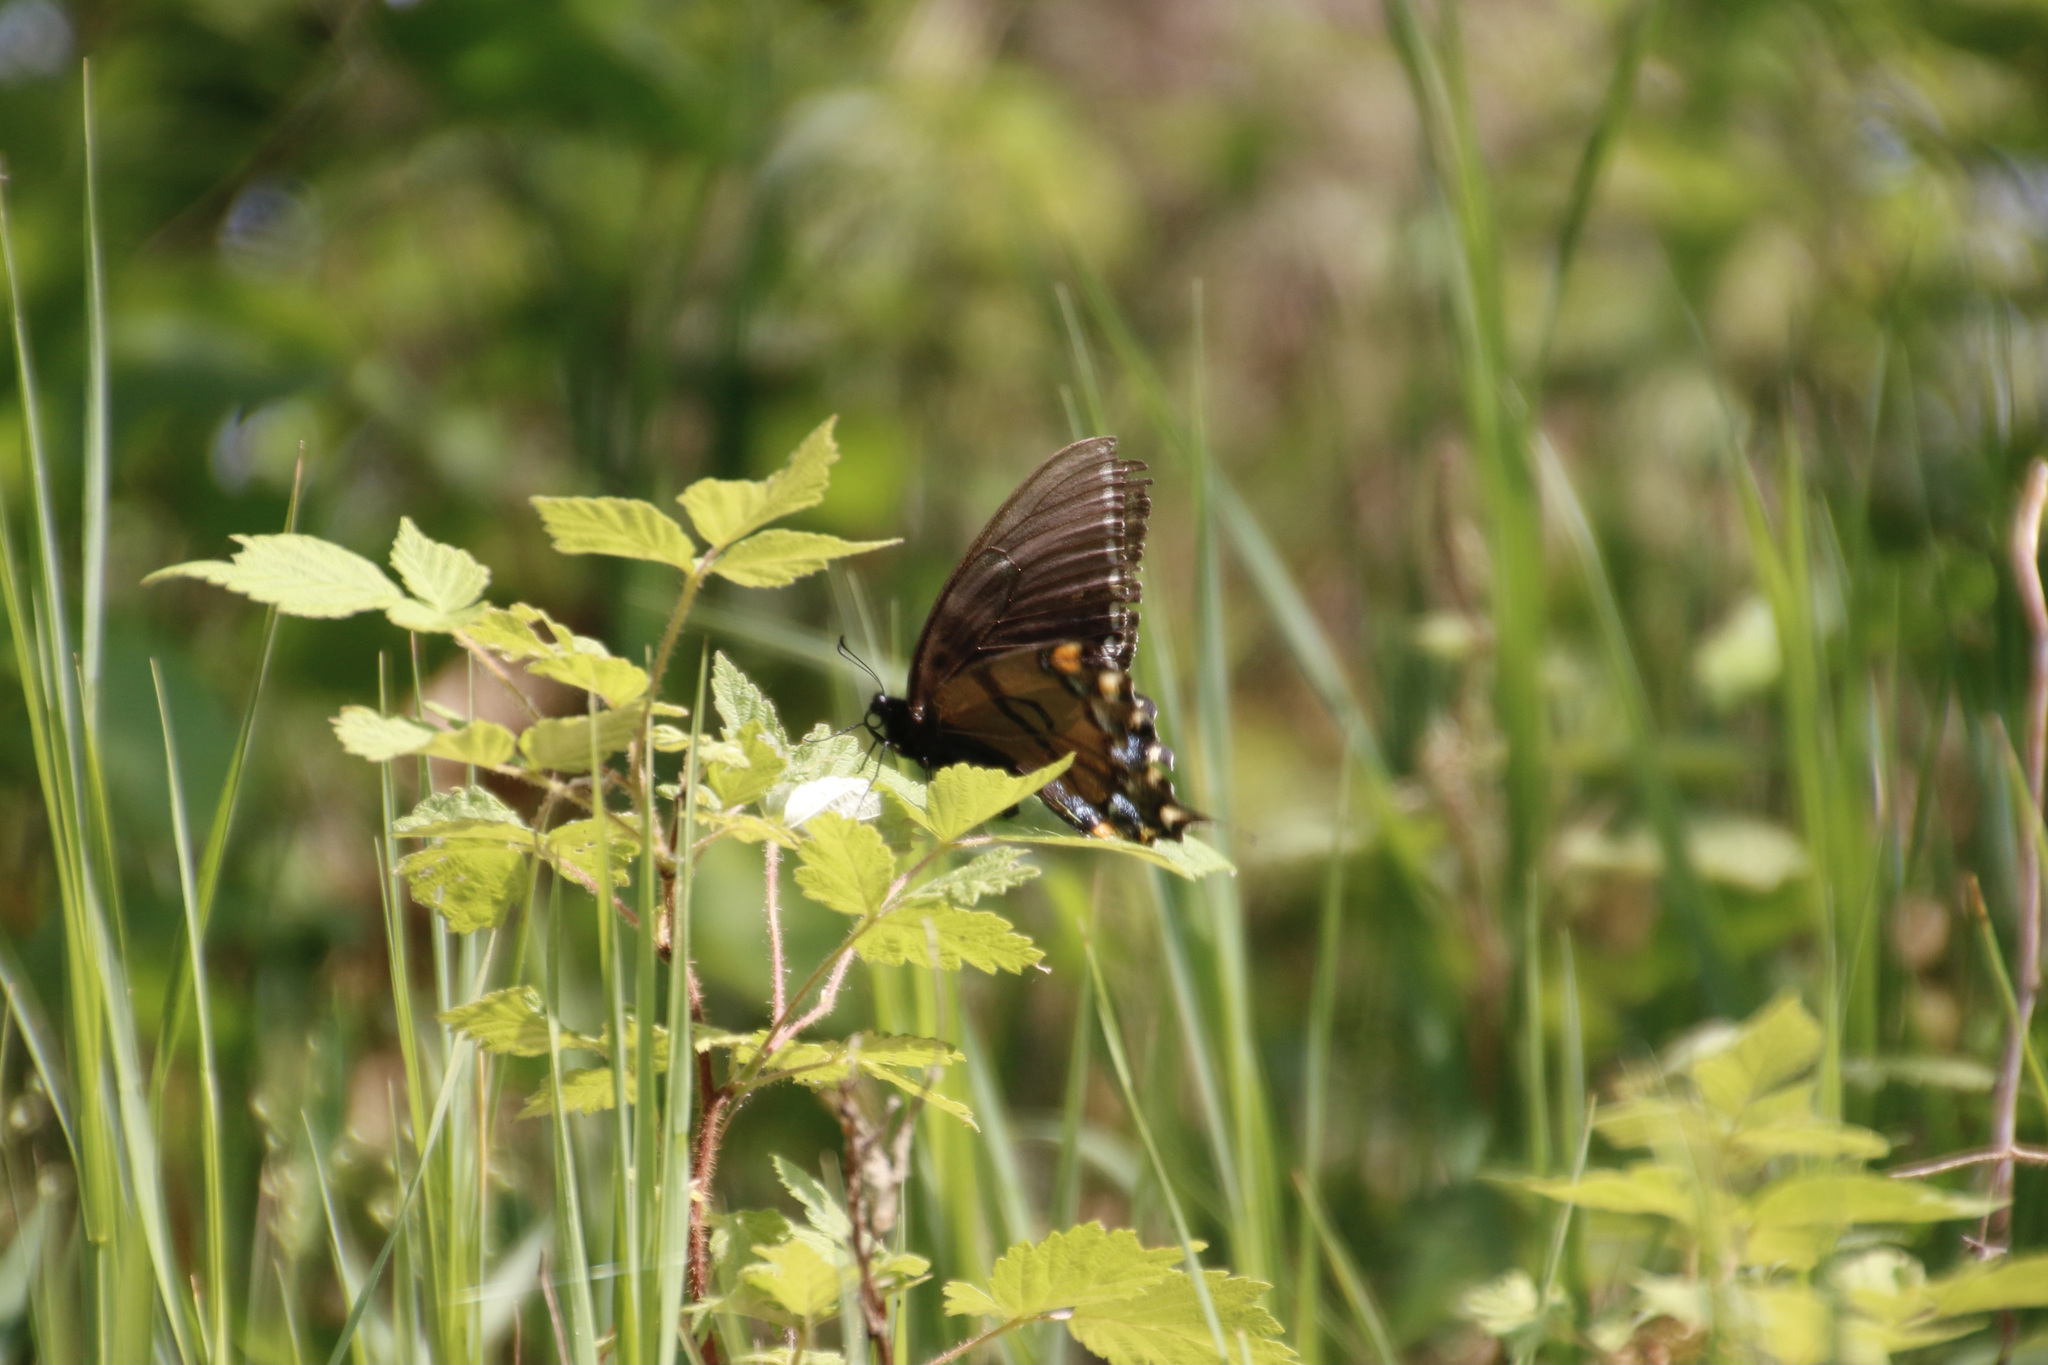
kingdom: Animalia
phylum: Arthropoda
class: Insecta
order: Lepidoptera
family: Papilionidae
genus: Papilio
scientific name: Papilio glaucus
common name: Tiger swallowtail
